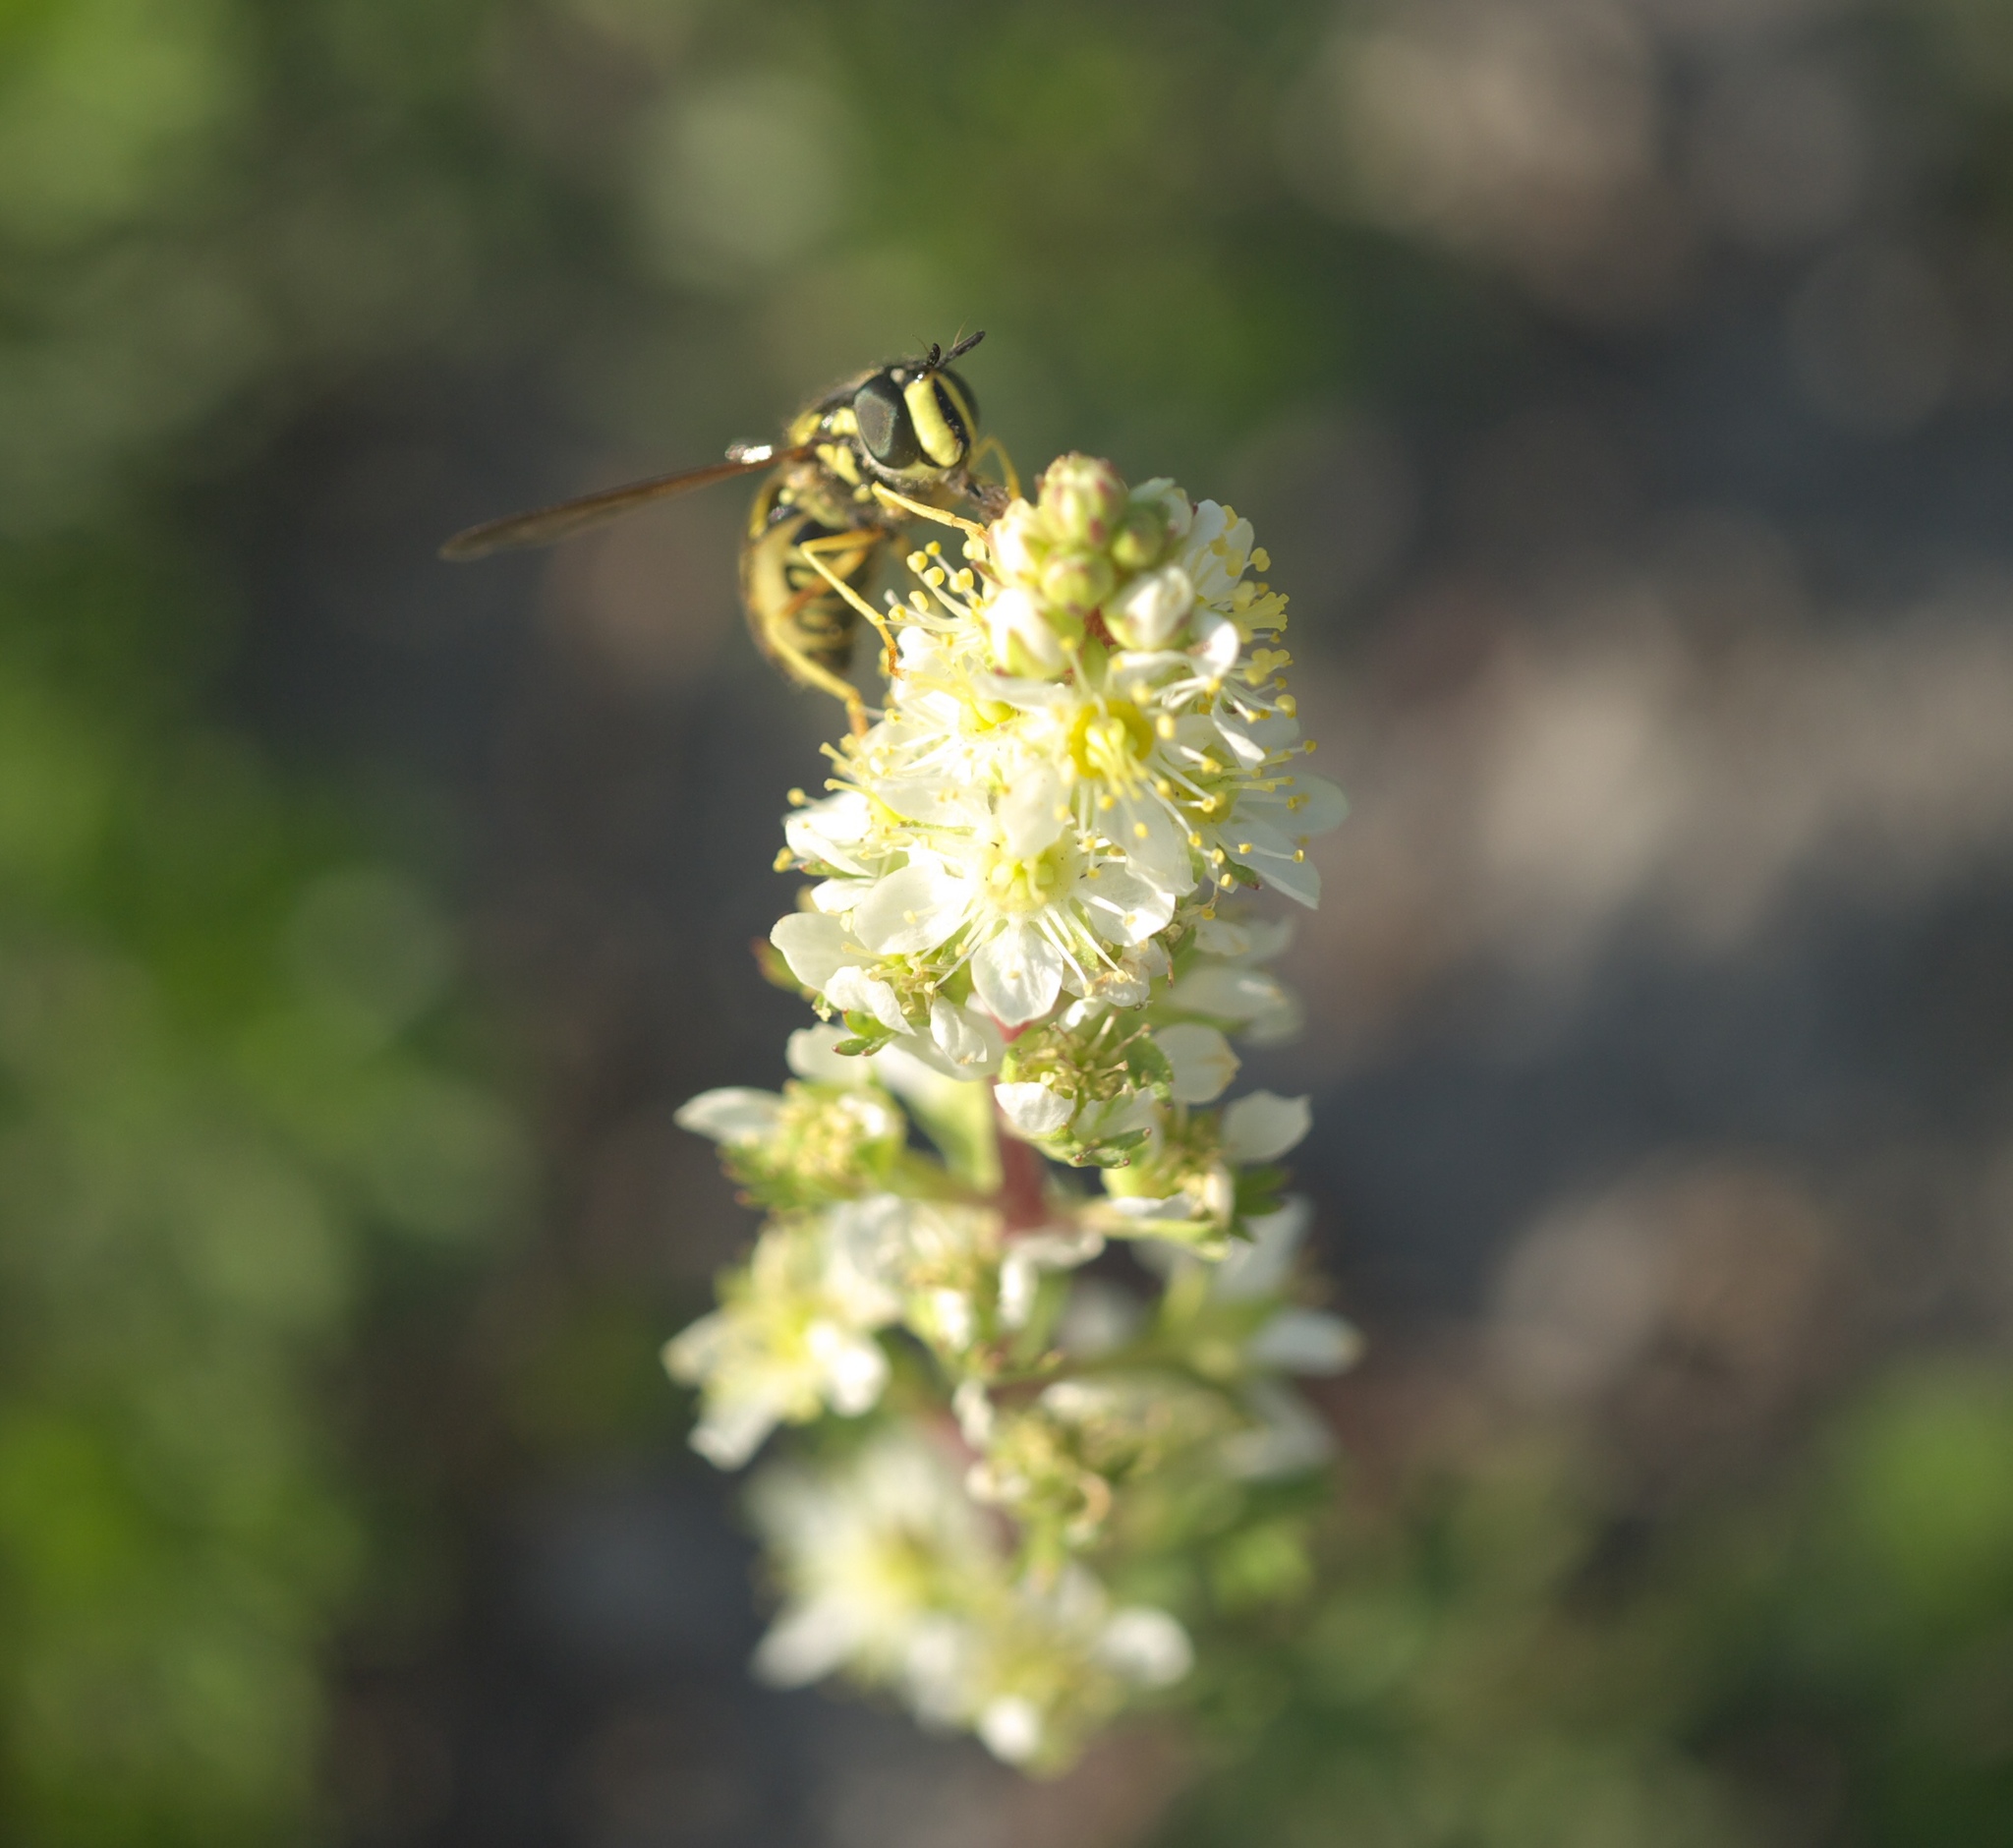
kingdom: Plantae
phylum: Tracheophyta
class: Magnoliopsida
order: Rosales
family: Rosaceae
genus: Luetkea
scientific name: Luetkea pectinata
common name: Partridgefoot
